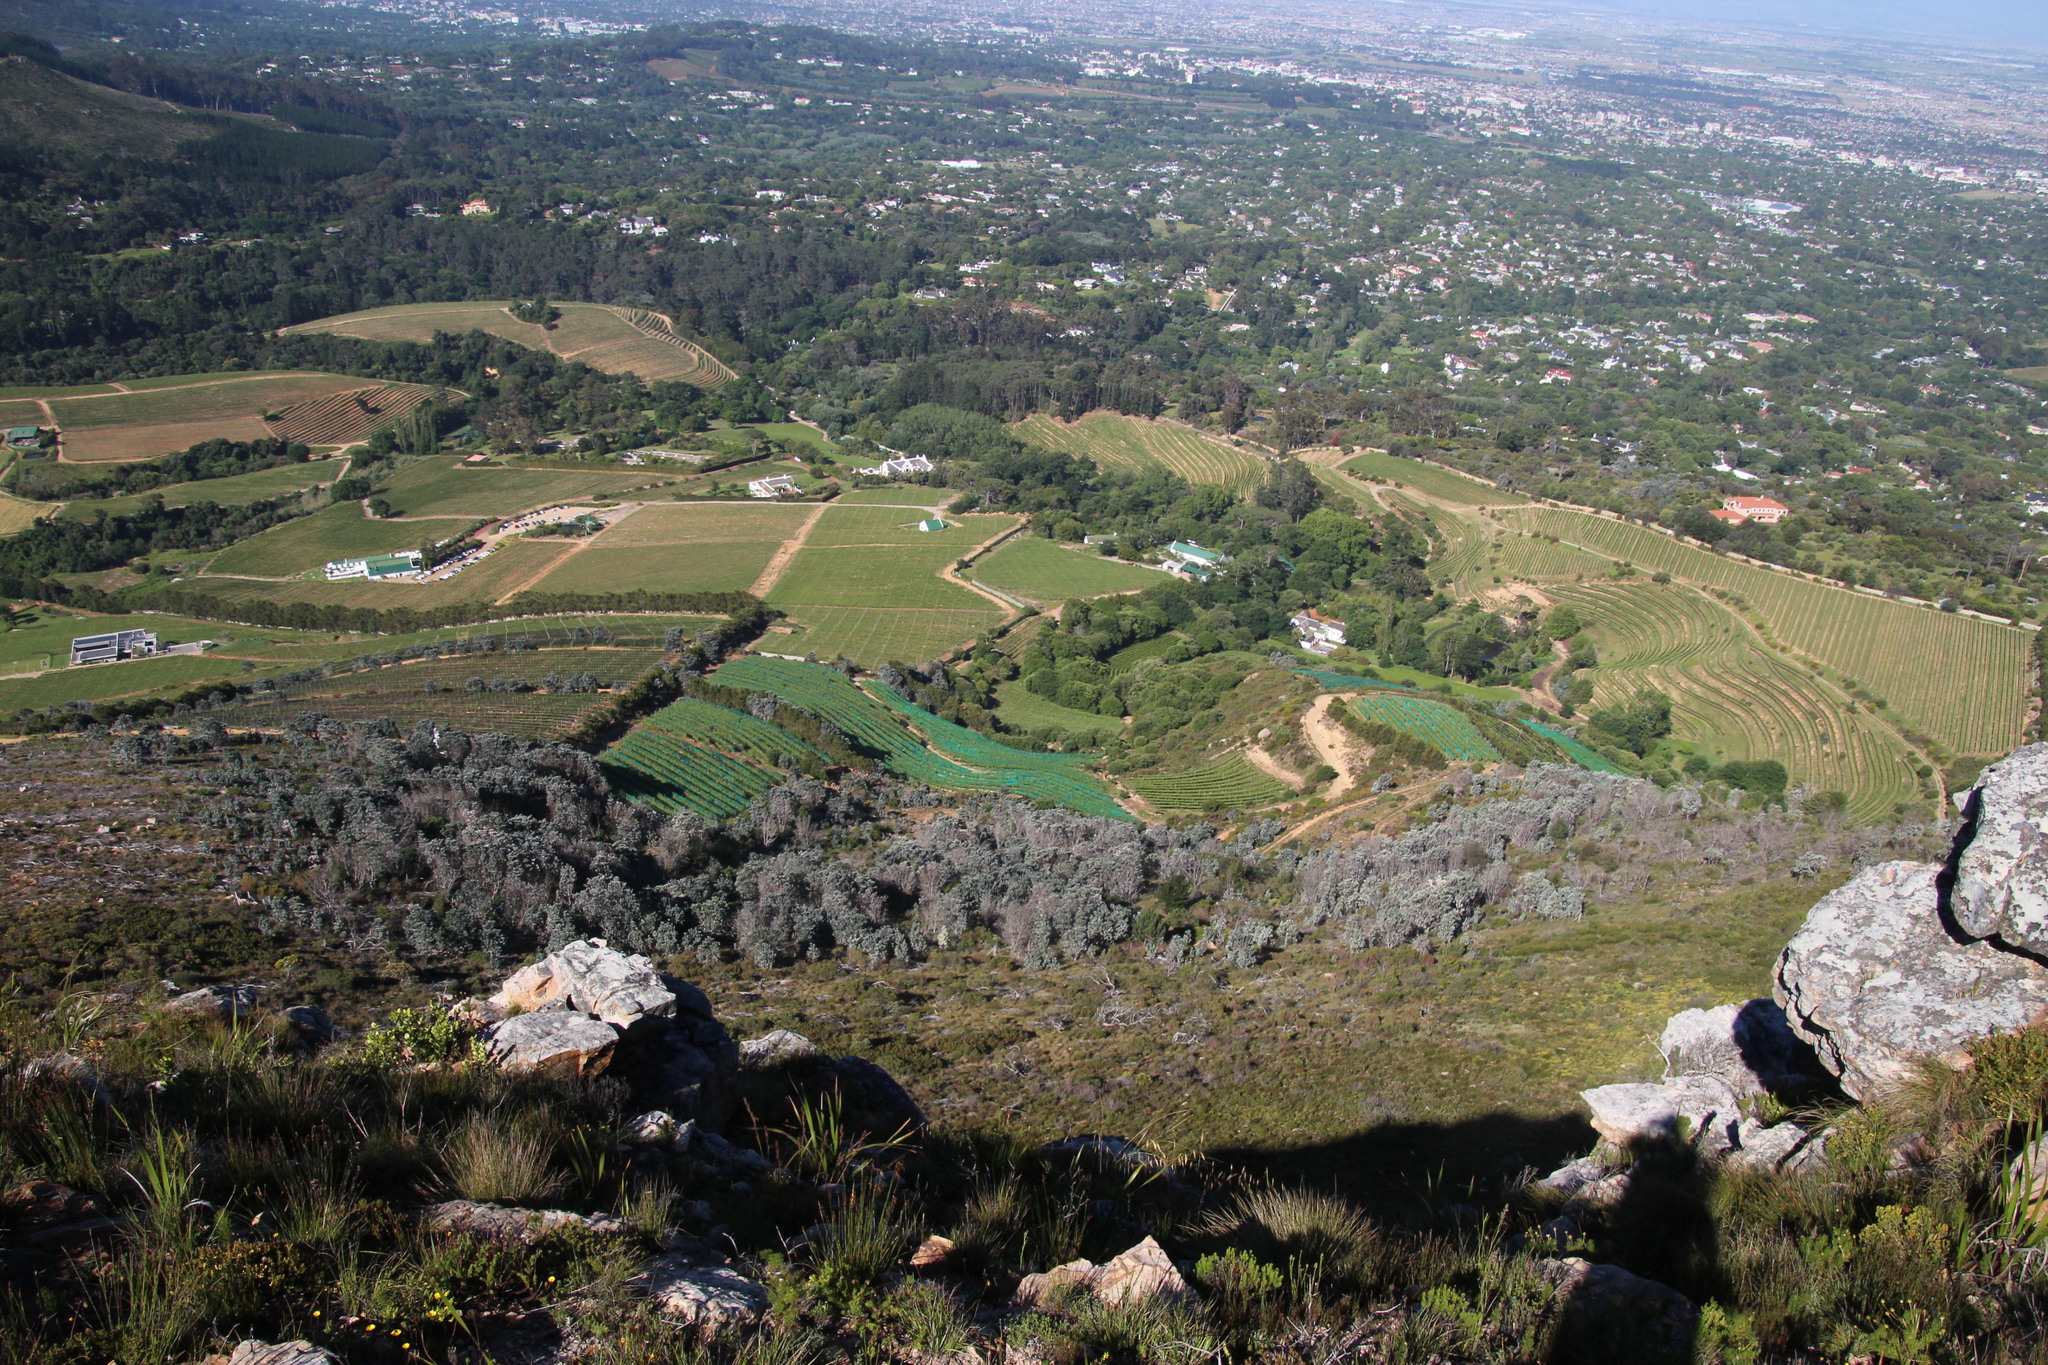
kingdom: Plantae
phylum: Tracheophyta
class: Magnoliopsida
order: Proteales
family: Proteaceae
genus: Leucadendron
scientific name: Leucadendron argenteum
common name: Cape silver tree
